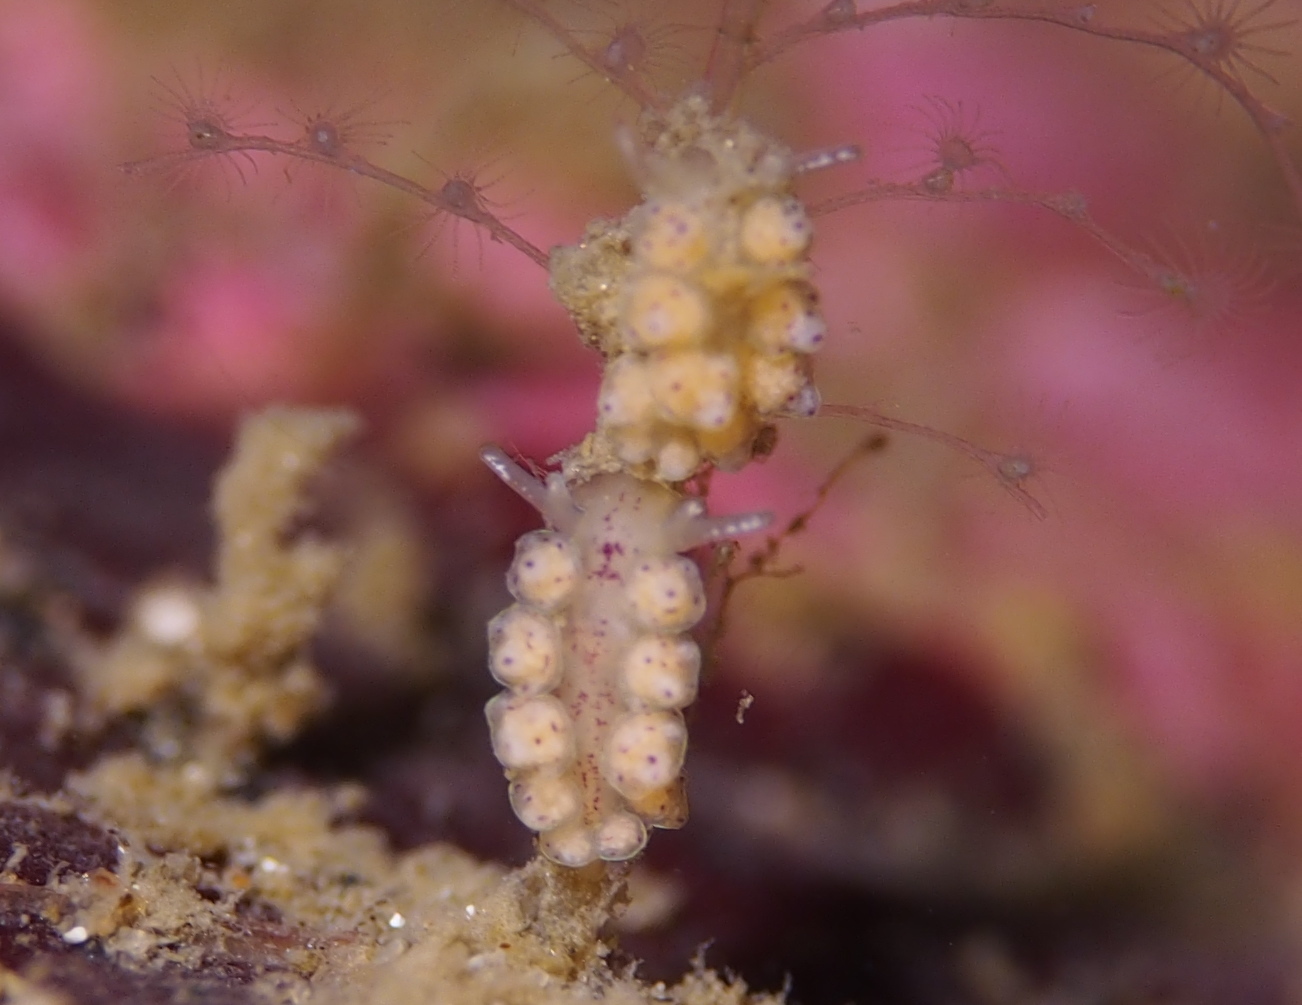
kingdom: Animalia
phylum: Mollusca
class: Gastropoda
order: Nudibranchia
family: Dotidae
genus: Doto
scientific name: Doto dunnei
